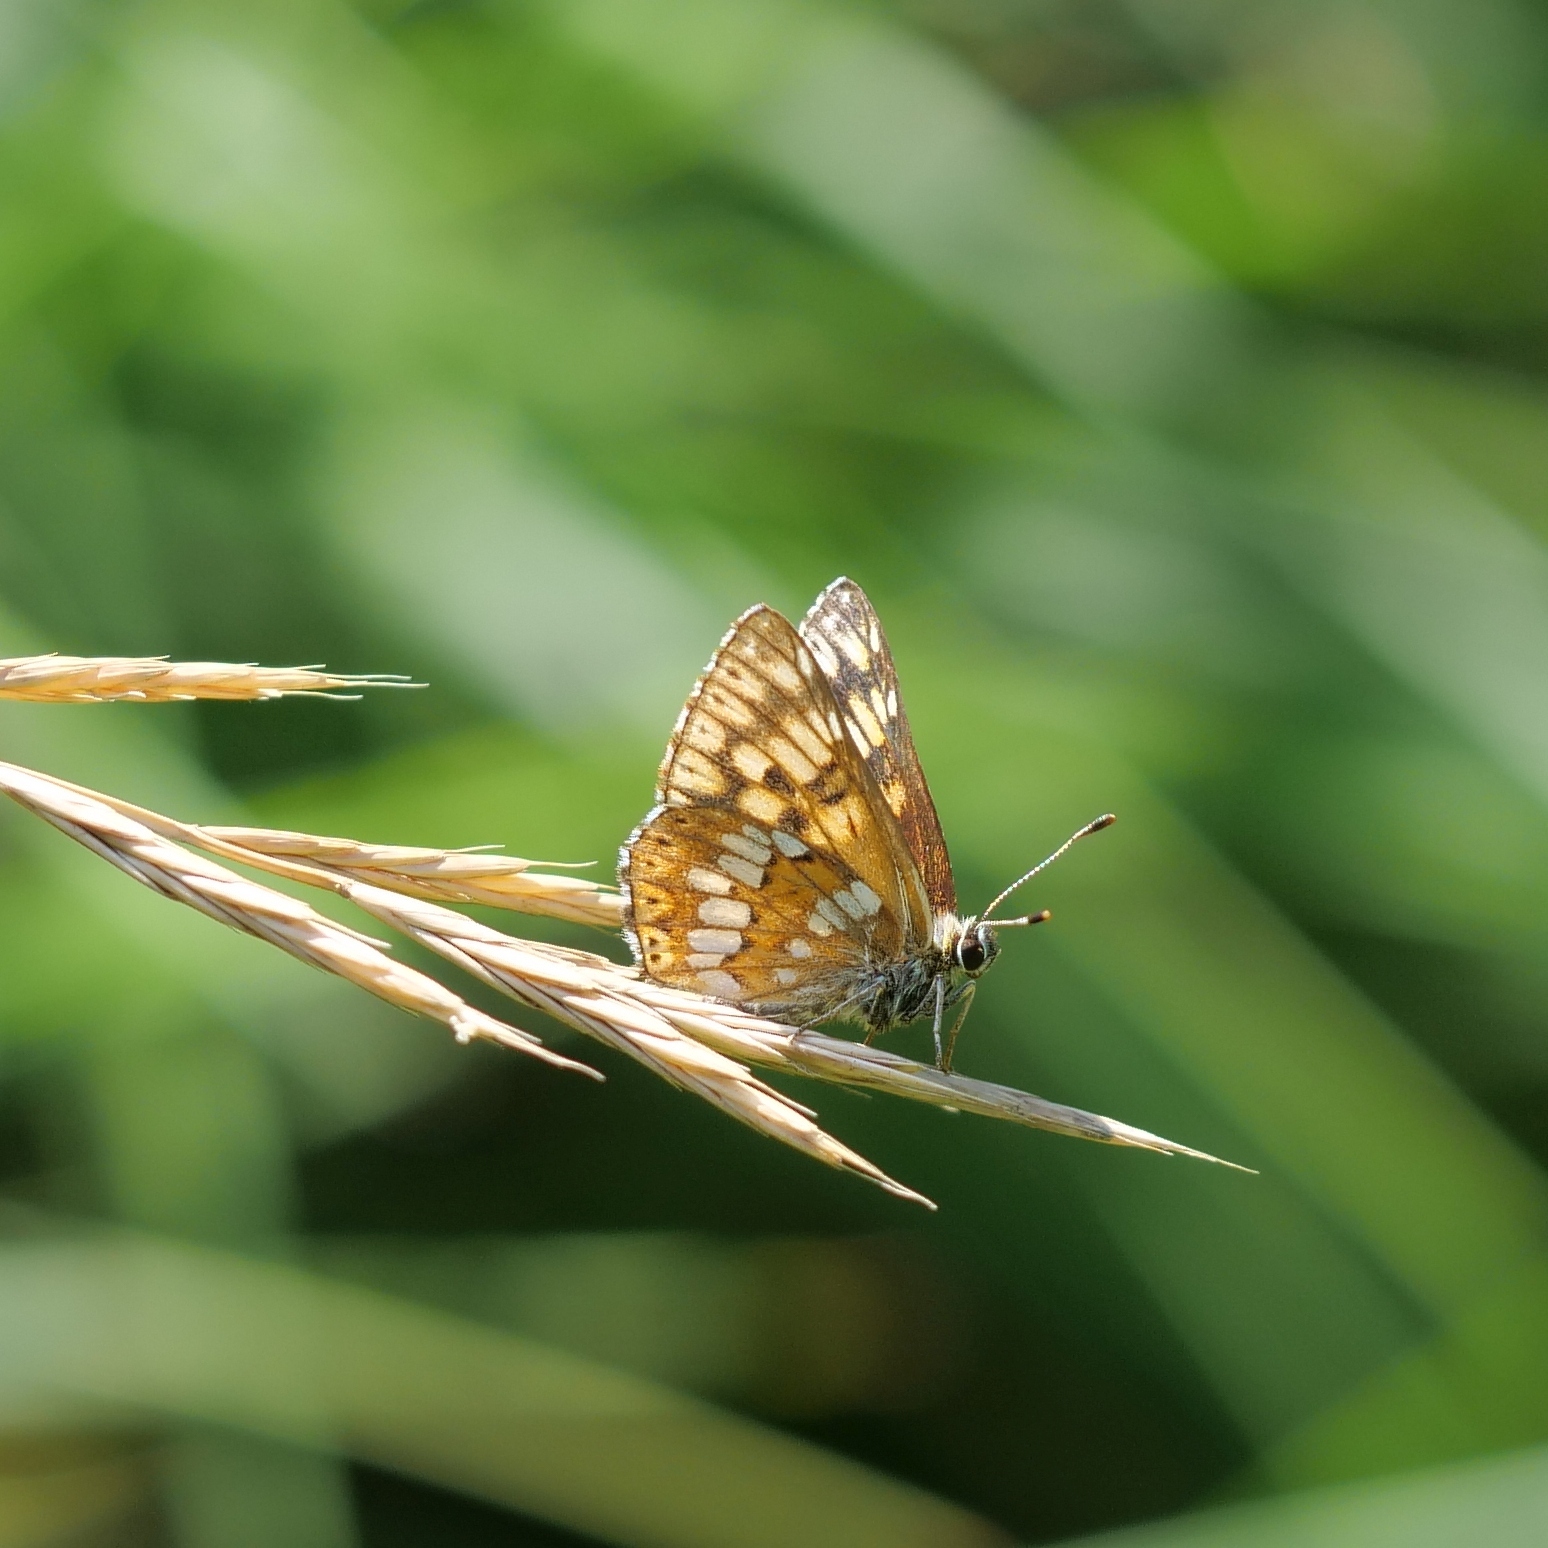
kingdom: Animalia
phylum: Arthropoda
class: Insecta
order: Lepidoptera
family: Riodinidae
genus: Hamearis
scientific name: Hamearis lucina
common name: Duke of burgundy fritillary
